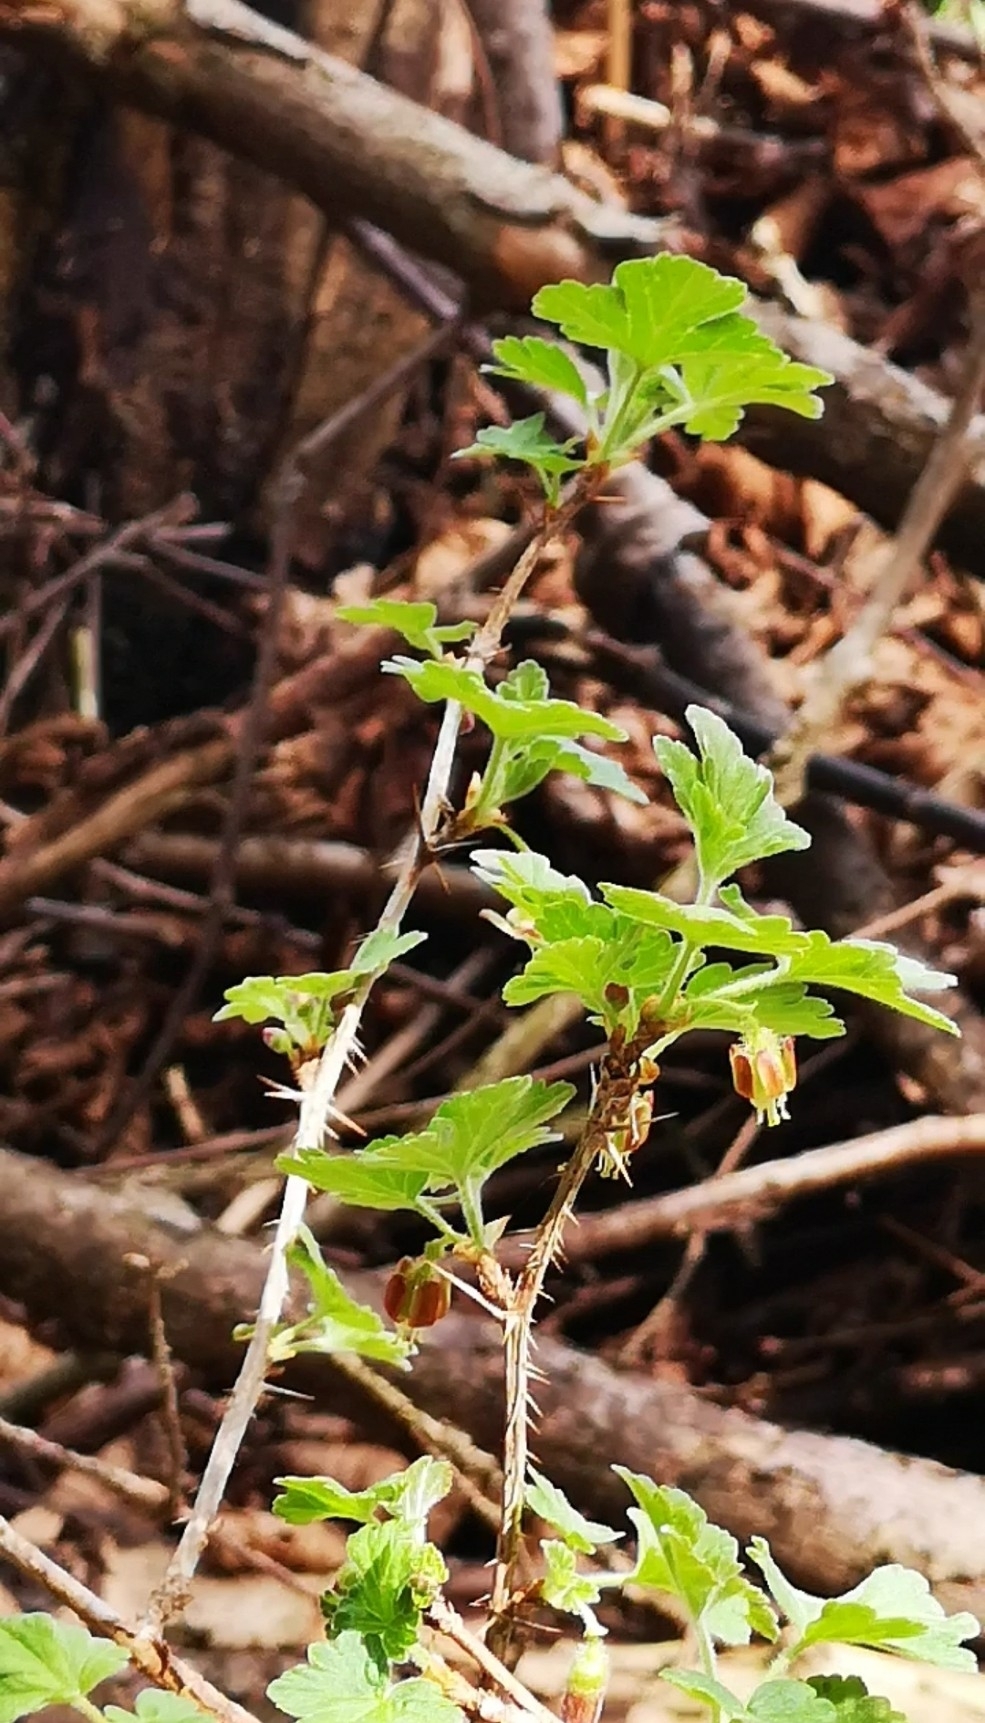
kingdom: Plantae
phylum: Tracheophyta
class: Magnoliopsida
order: Saxifragales
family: Grossulariaceae
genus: Ribes
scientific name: Ribes uva-crispa
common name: Gooseberry
